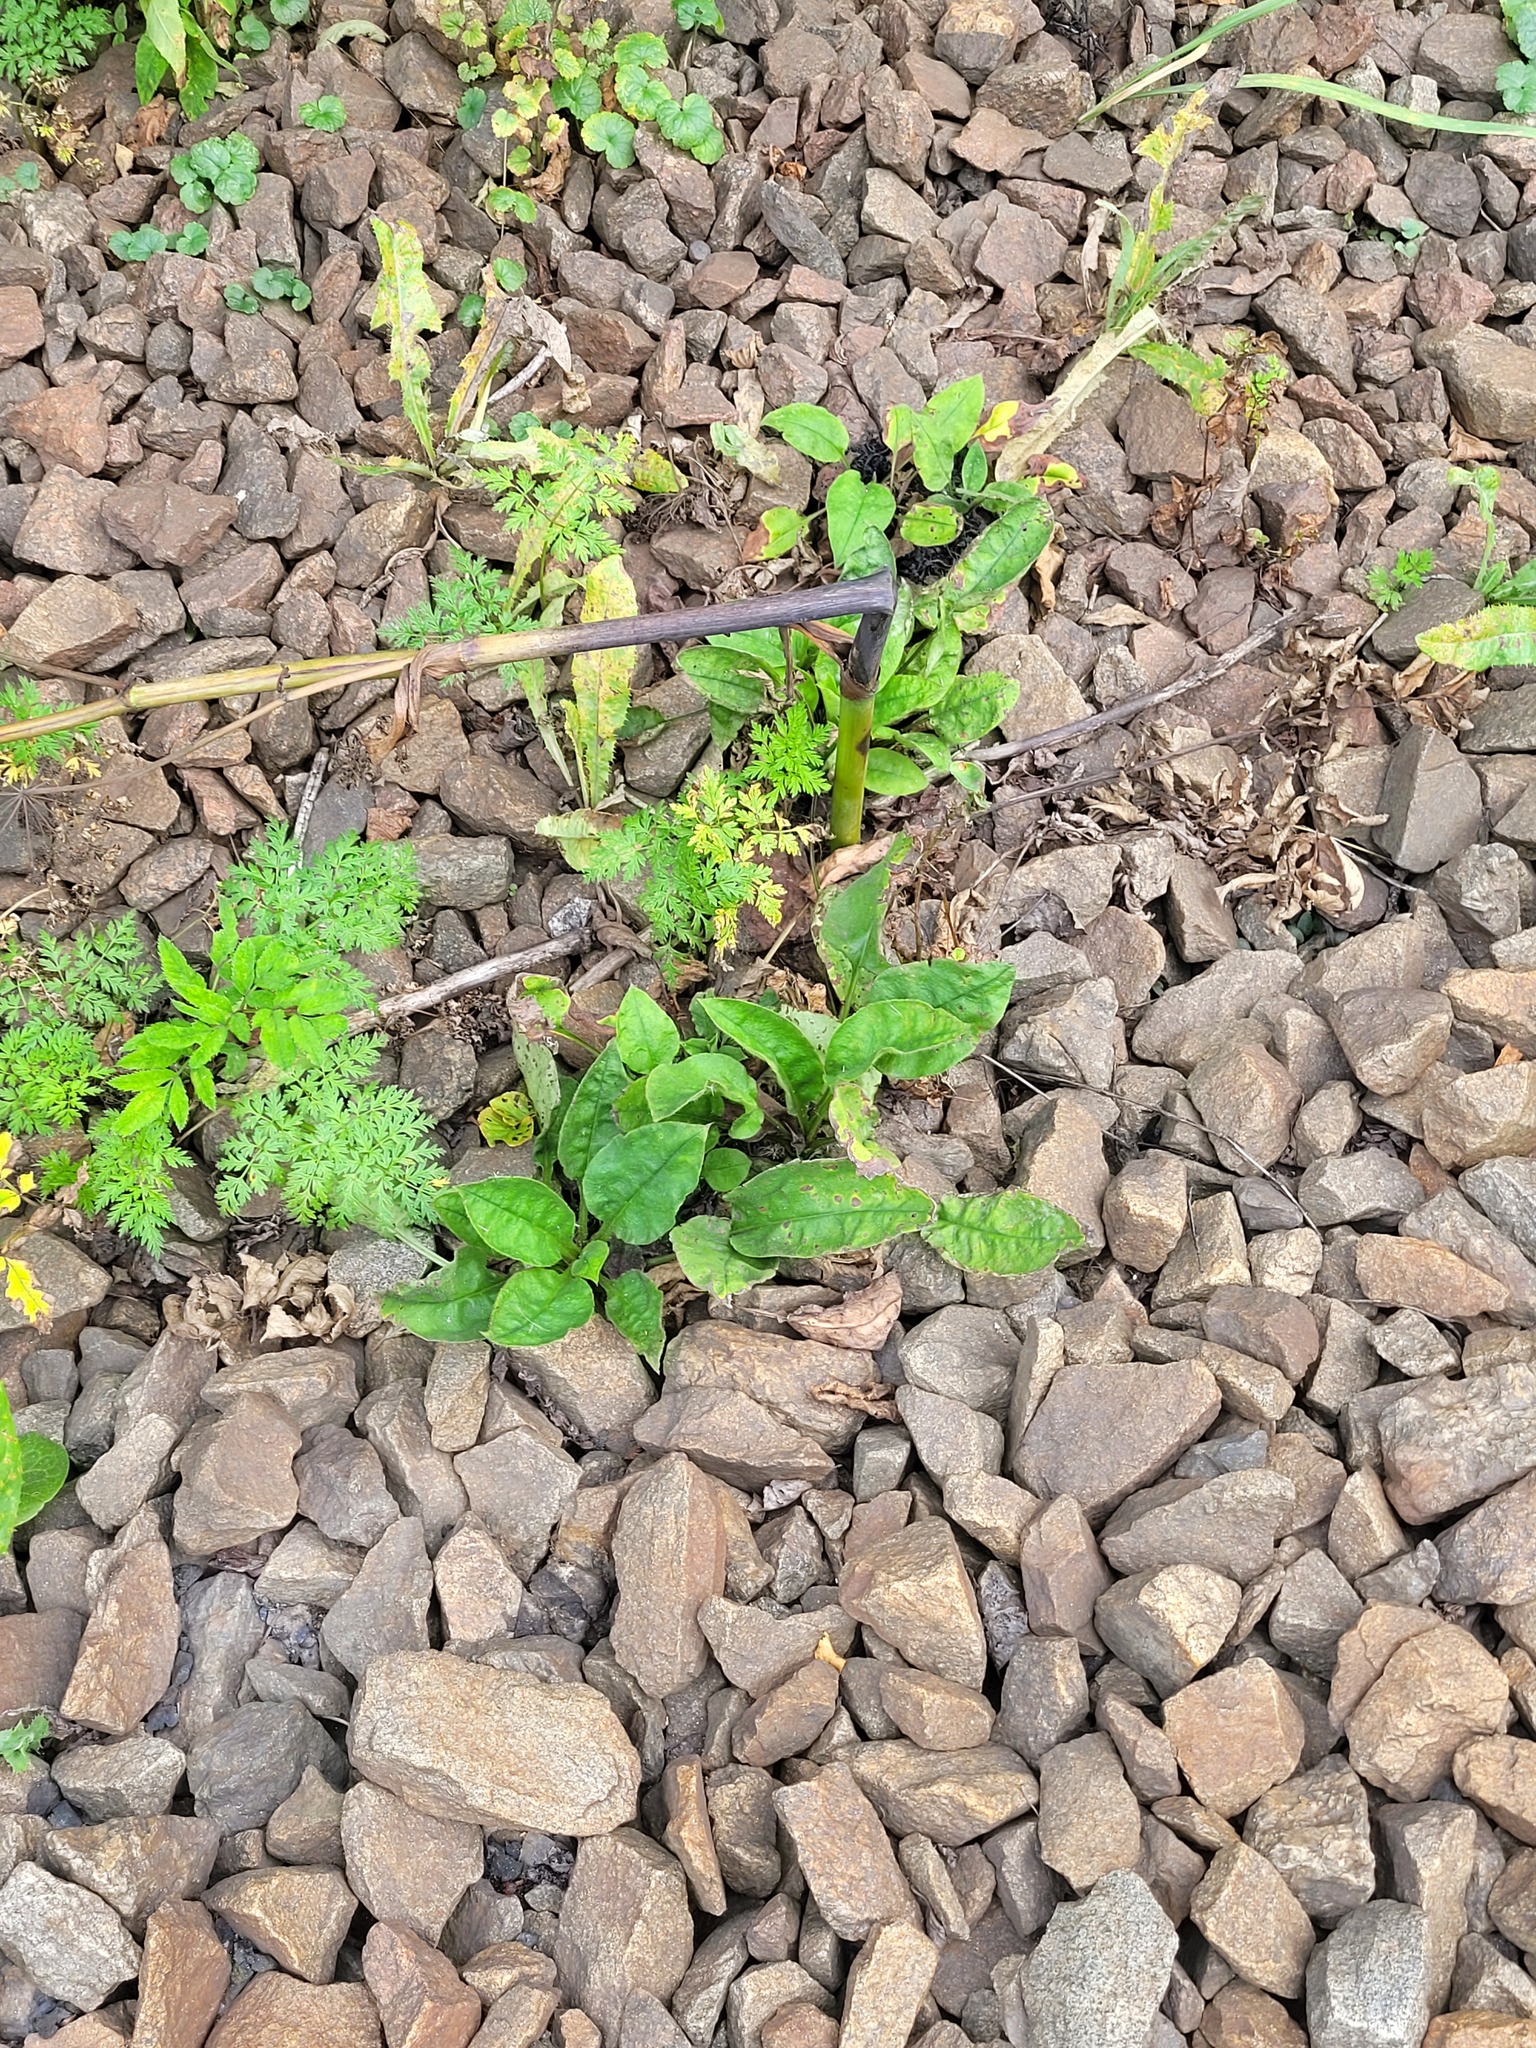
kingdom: Plantae
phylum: Tracheophyta
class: Magnoliopsida
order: Boraginales
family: Boraginaceae
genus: Pulmonaria
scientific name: Pulmonaria obscura
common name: Suffolk lungwort
